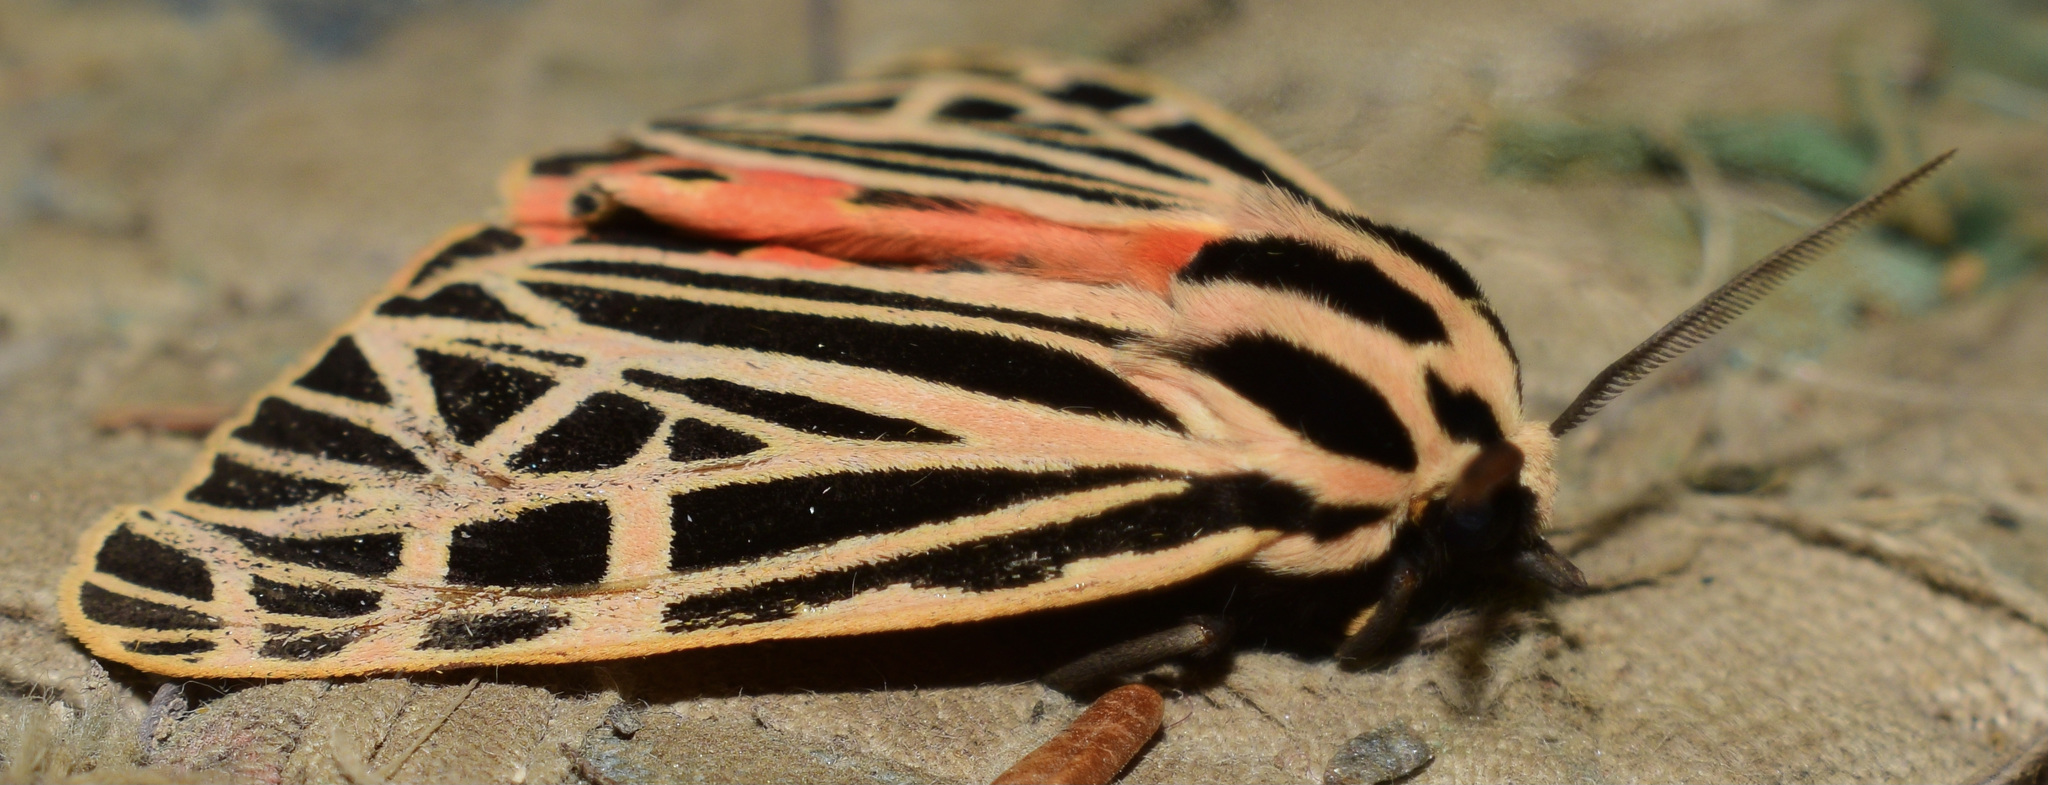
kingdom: Animalia
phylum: Arthropoda
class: Insecta
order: Lepidoptera
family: Erebidae
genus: Grammia
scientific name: Grammia virgo
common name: Virgin tiger moth
